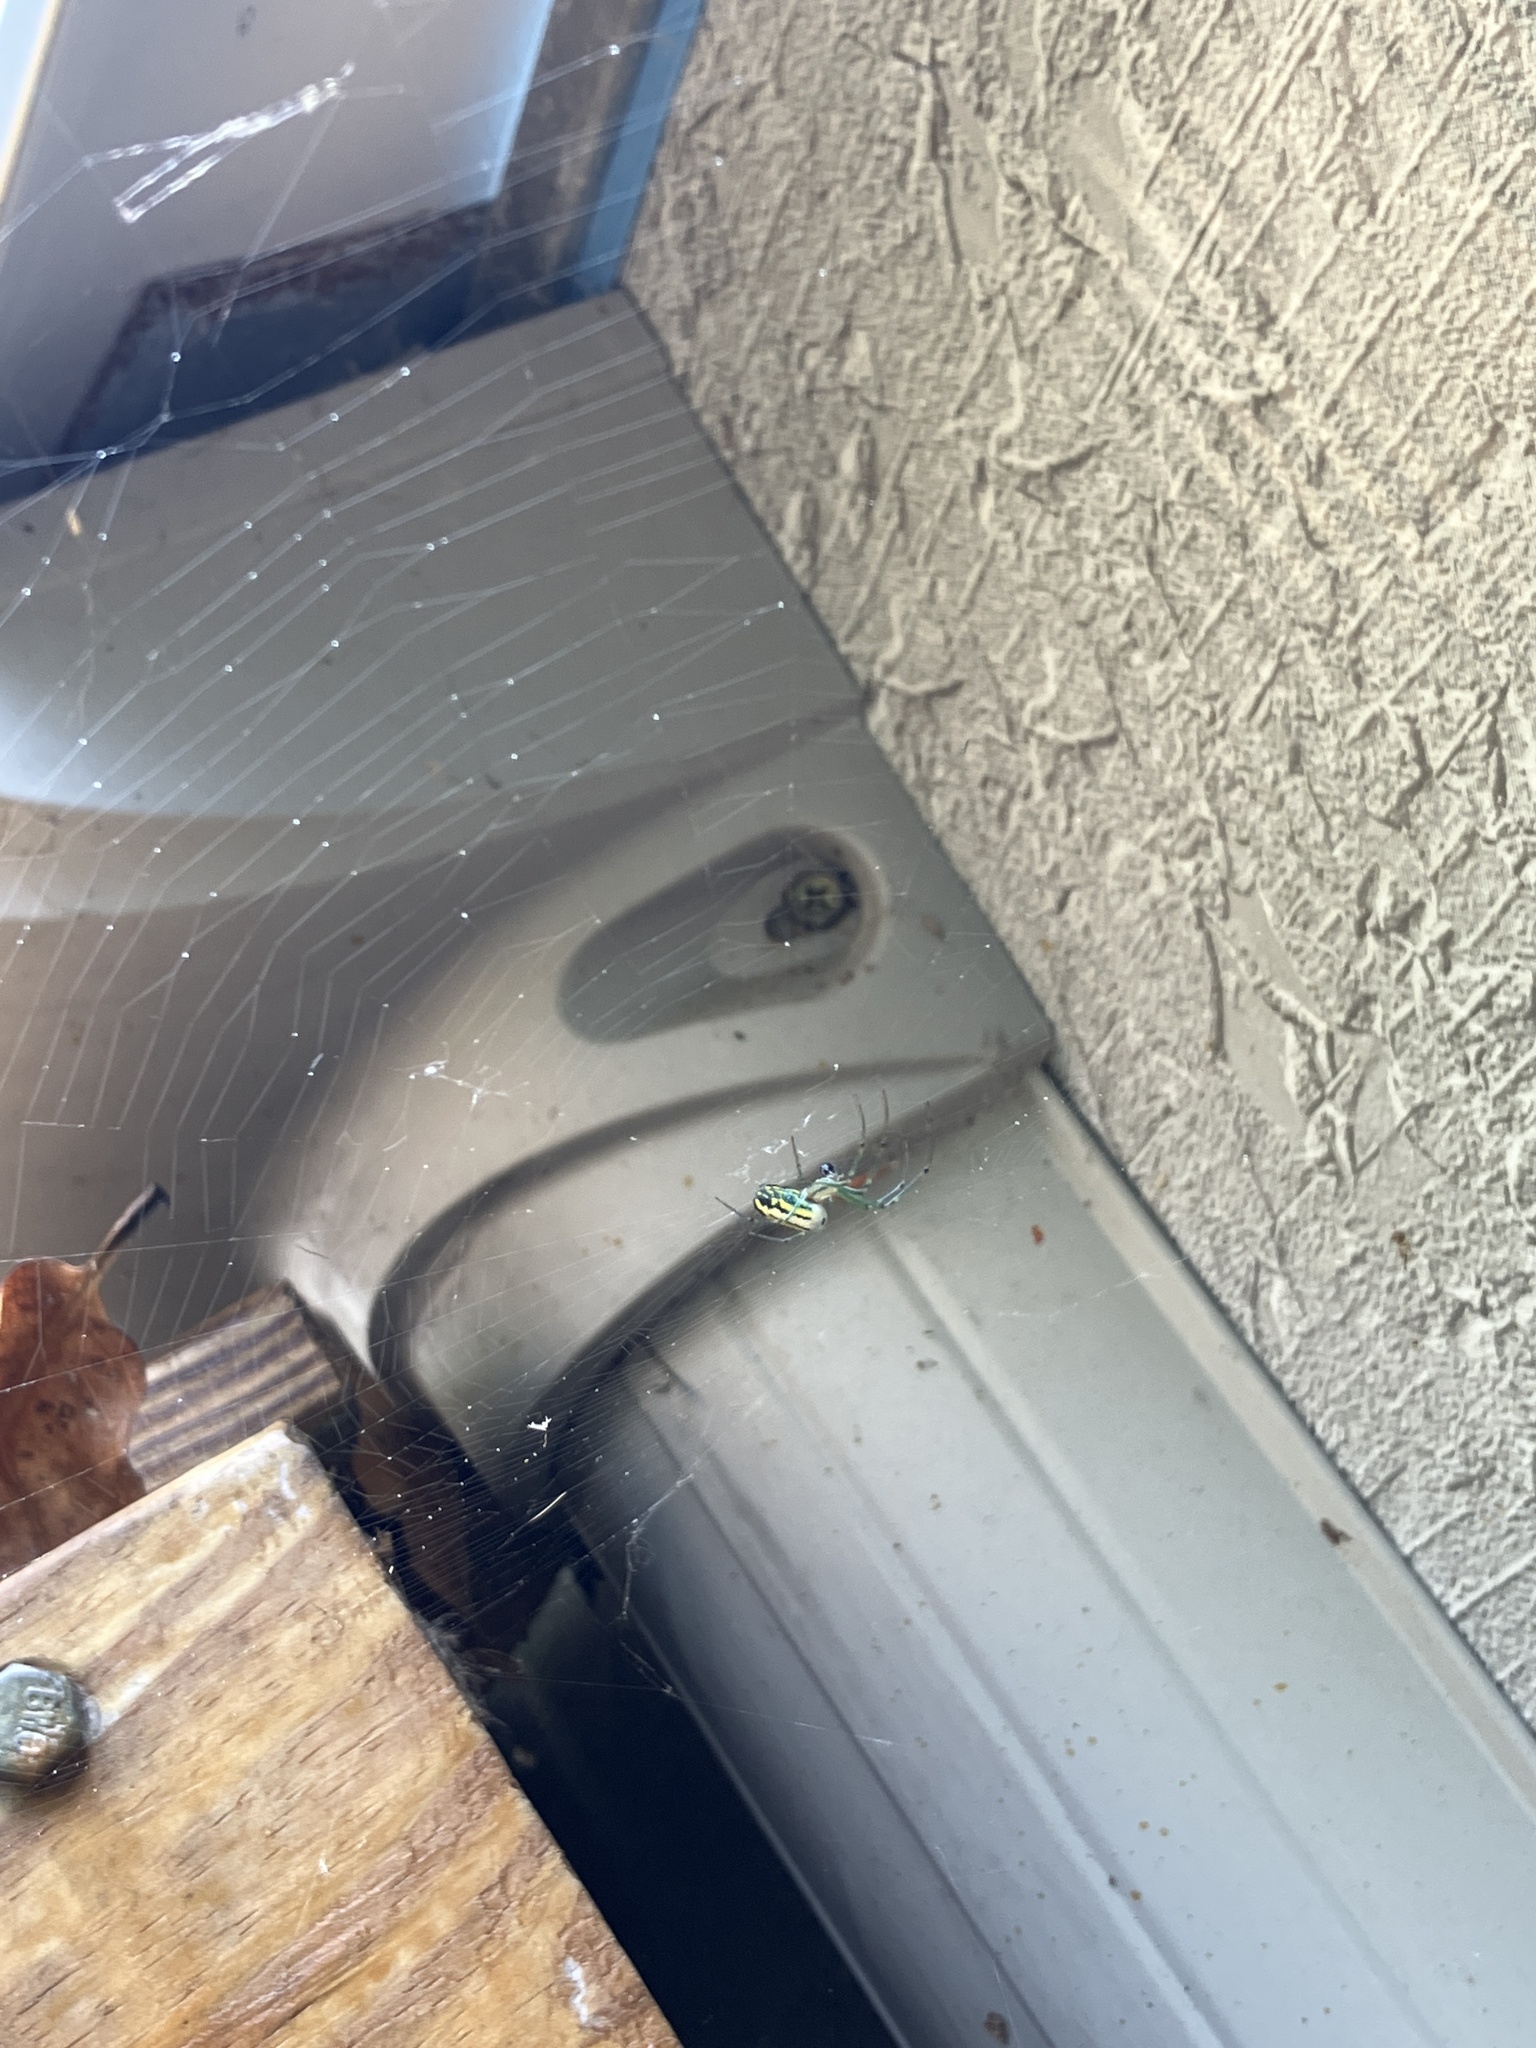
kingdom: Animalia
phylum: Arthropoda
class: Arachnida
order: Araneae
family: Tetragnathidae
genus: Leucauge
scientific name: Leucauge venusta
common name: Longjawed orb weavers
